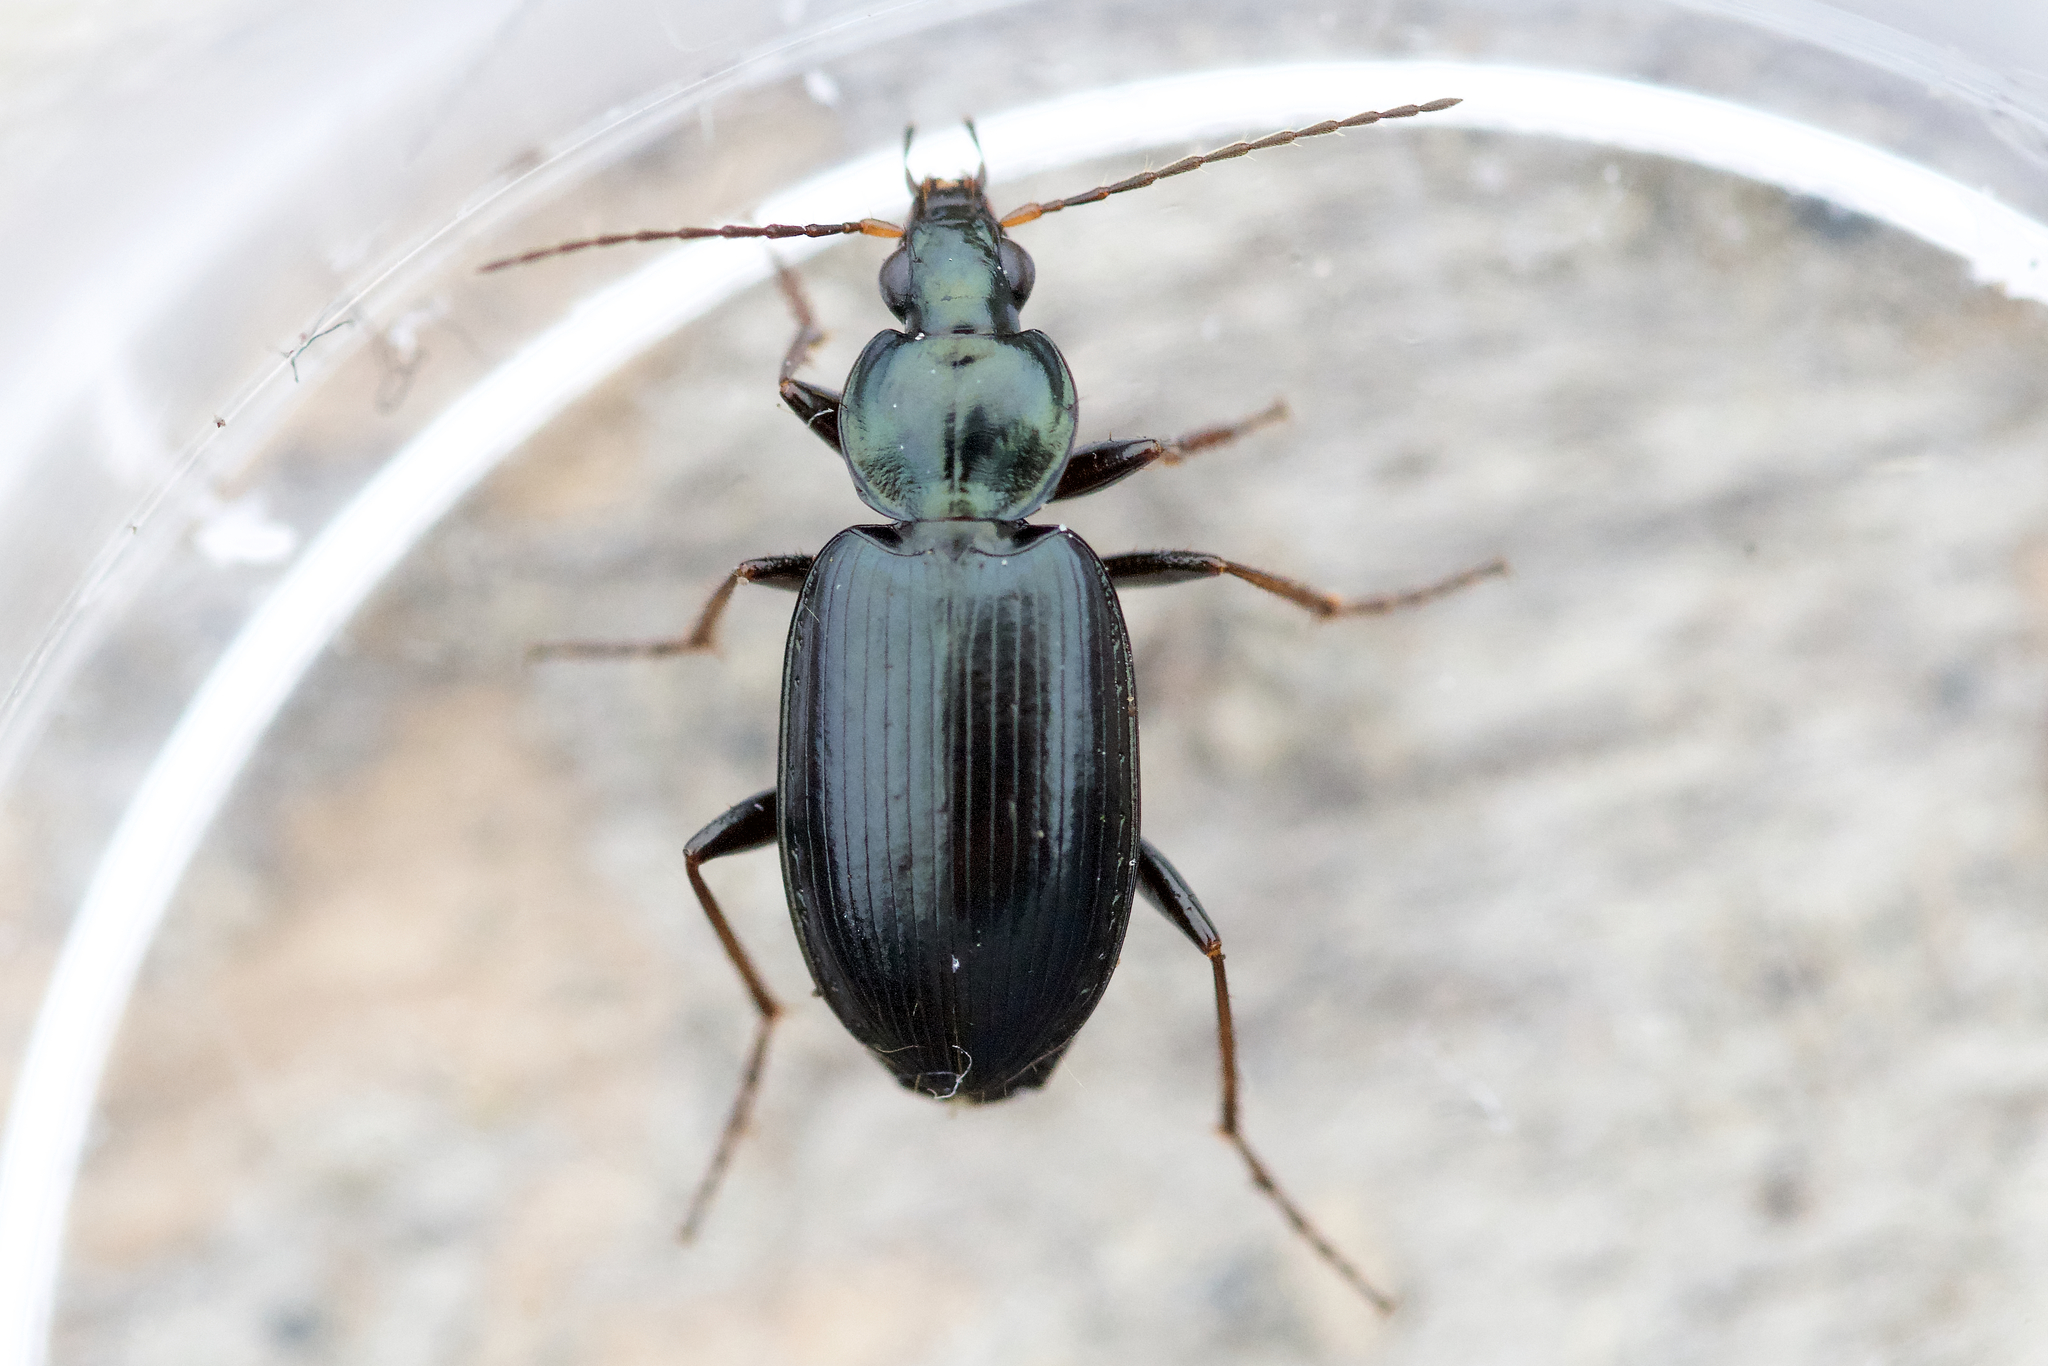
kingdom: Animalia
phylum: Arthropoda
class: Insecta
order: Coleoptera
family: Carabidae
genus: Agonum
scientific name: Agonum placidum
